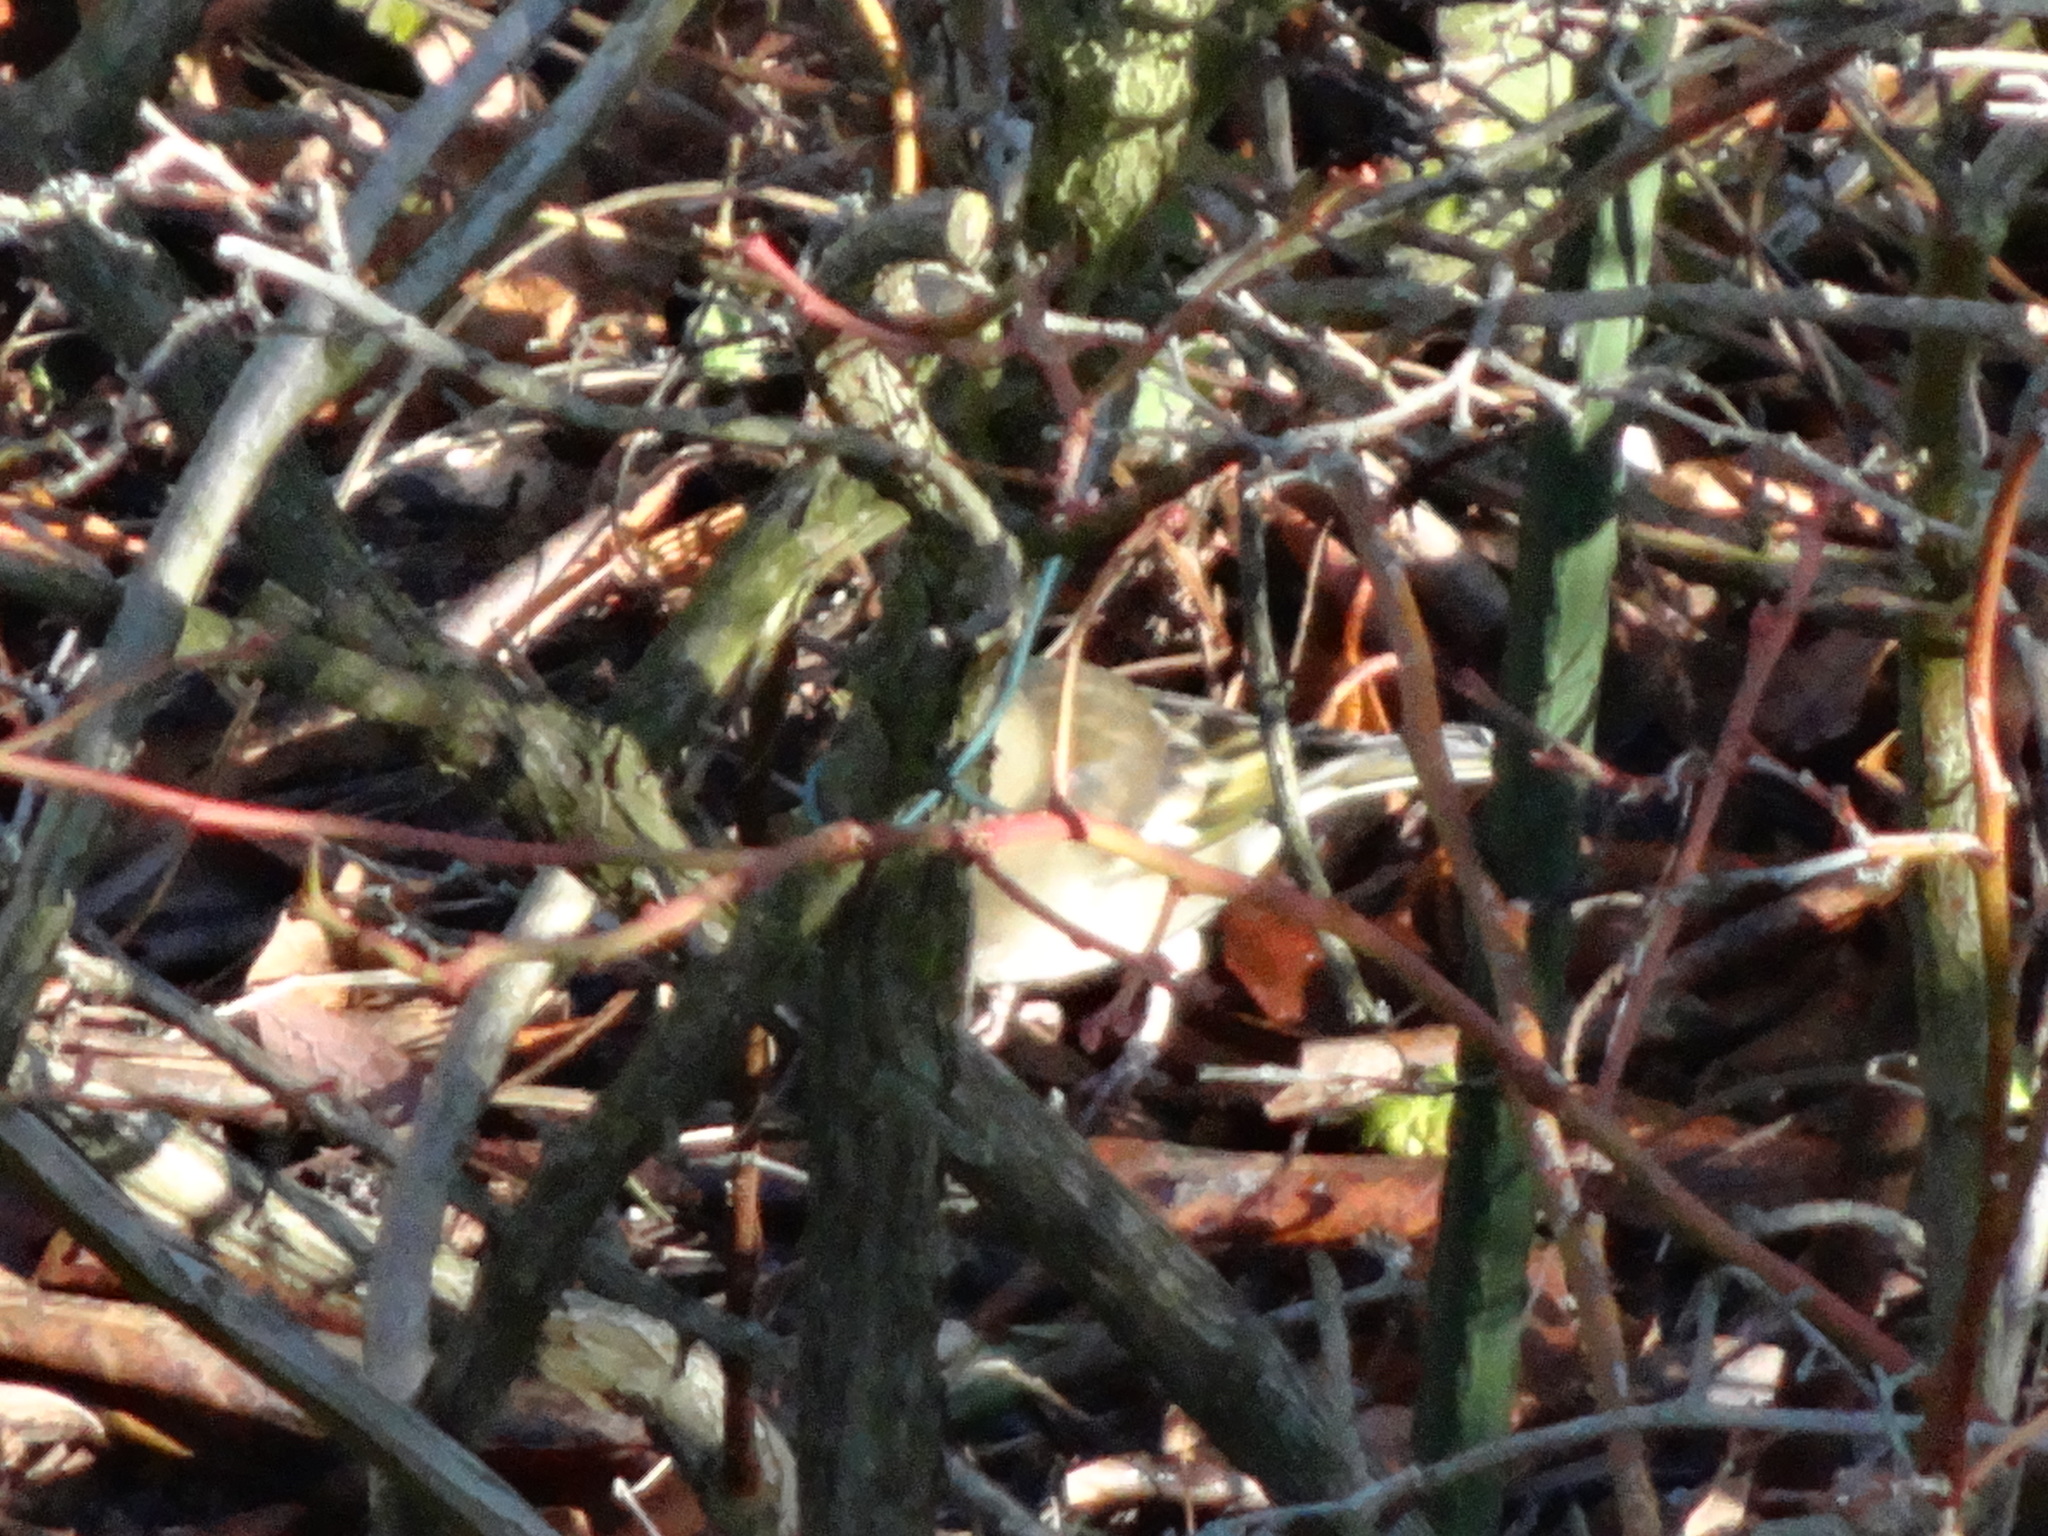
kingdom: Animalia
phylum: Chordata
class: Aves
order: Passeriformes
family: Fringillidae
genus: Fringilla
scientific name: Fringilla coelebs
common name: Common chaffinch
